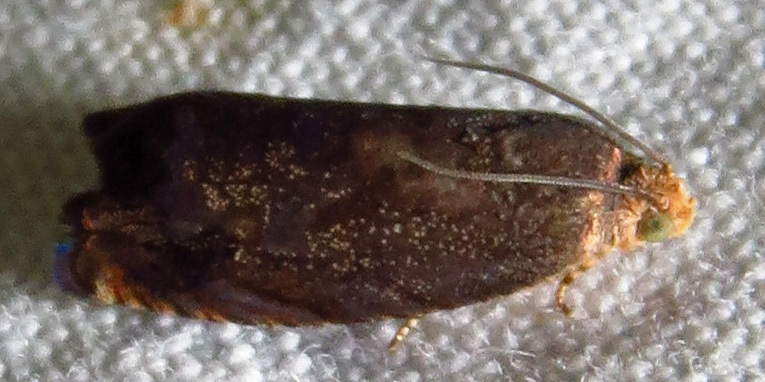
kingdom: Animalia
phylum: Arthropoda
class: Insecta
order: Lepidoptera
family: Tortricidae
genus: Cydia
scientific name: Cydia caryana
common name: Hickory shuckworm moth
